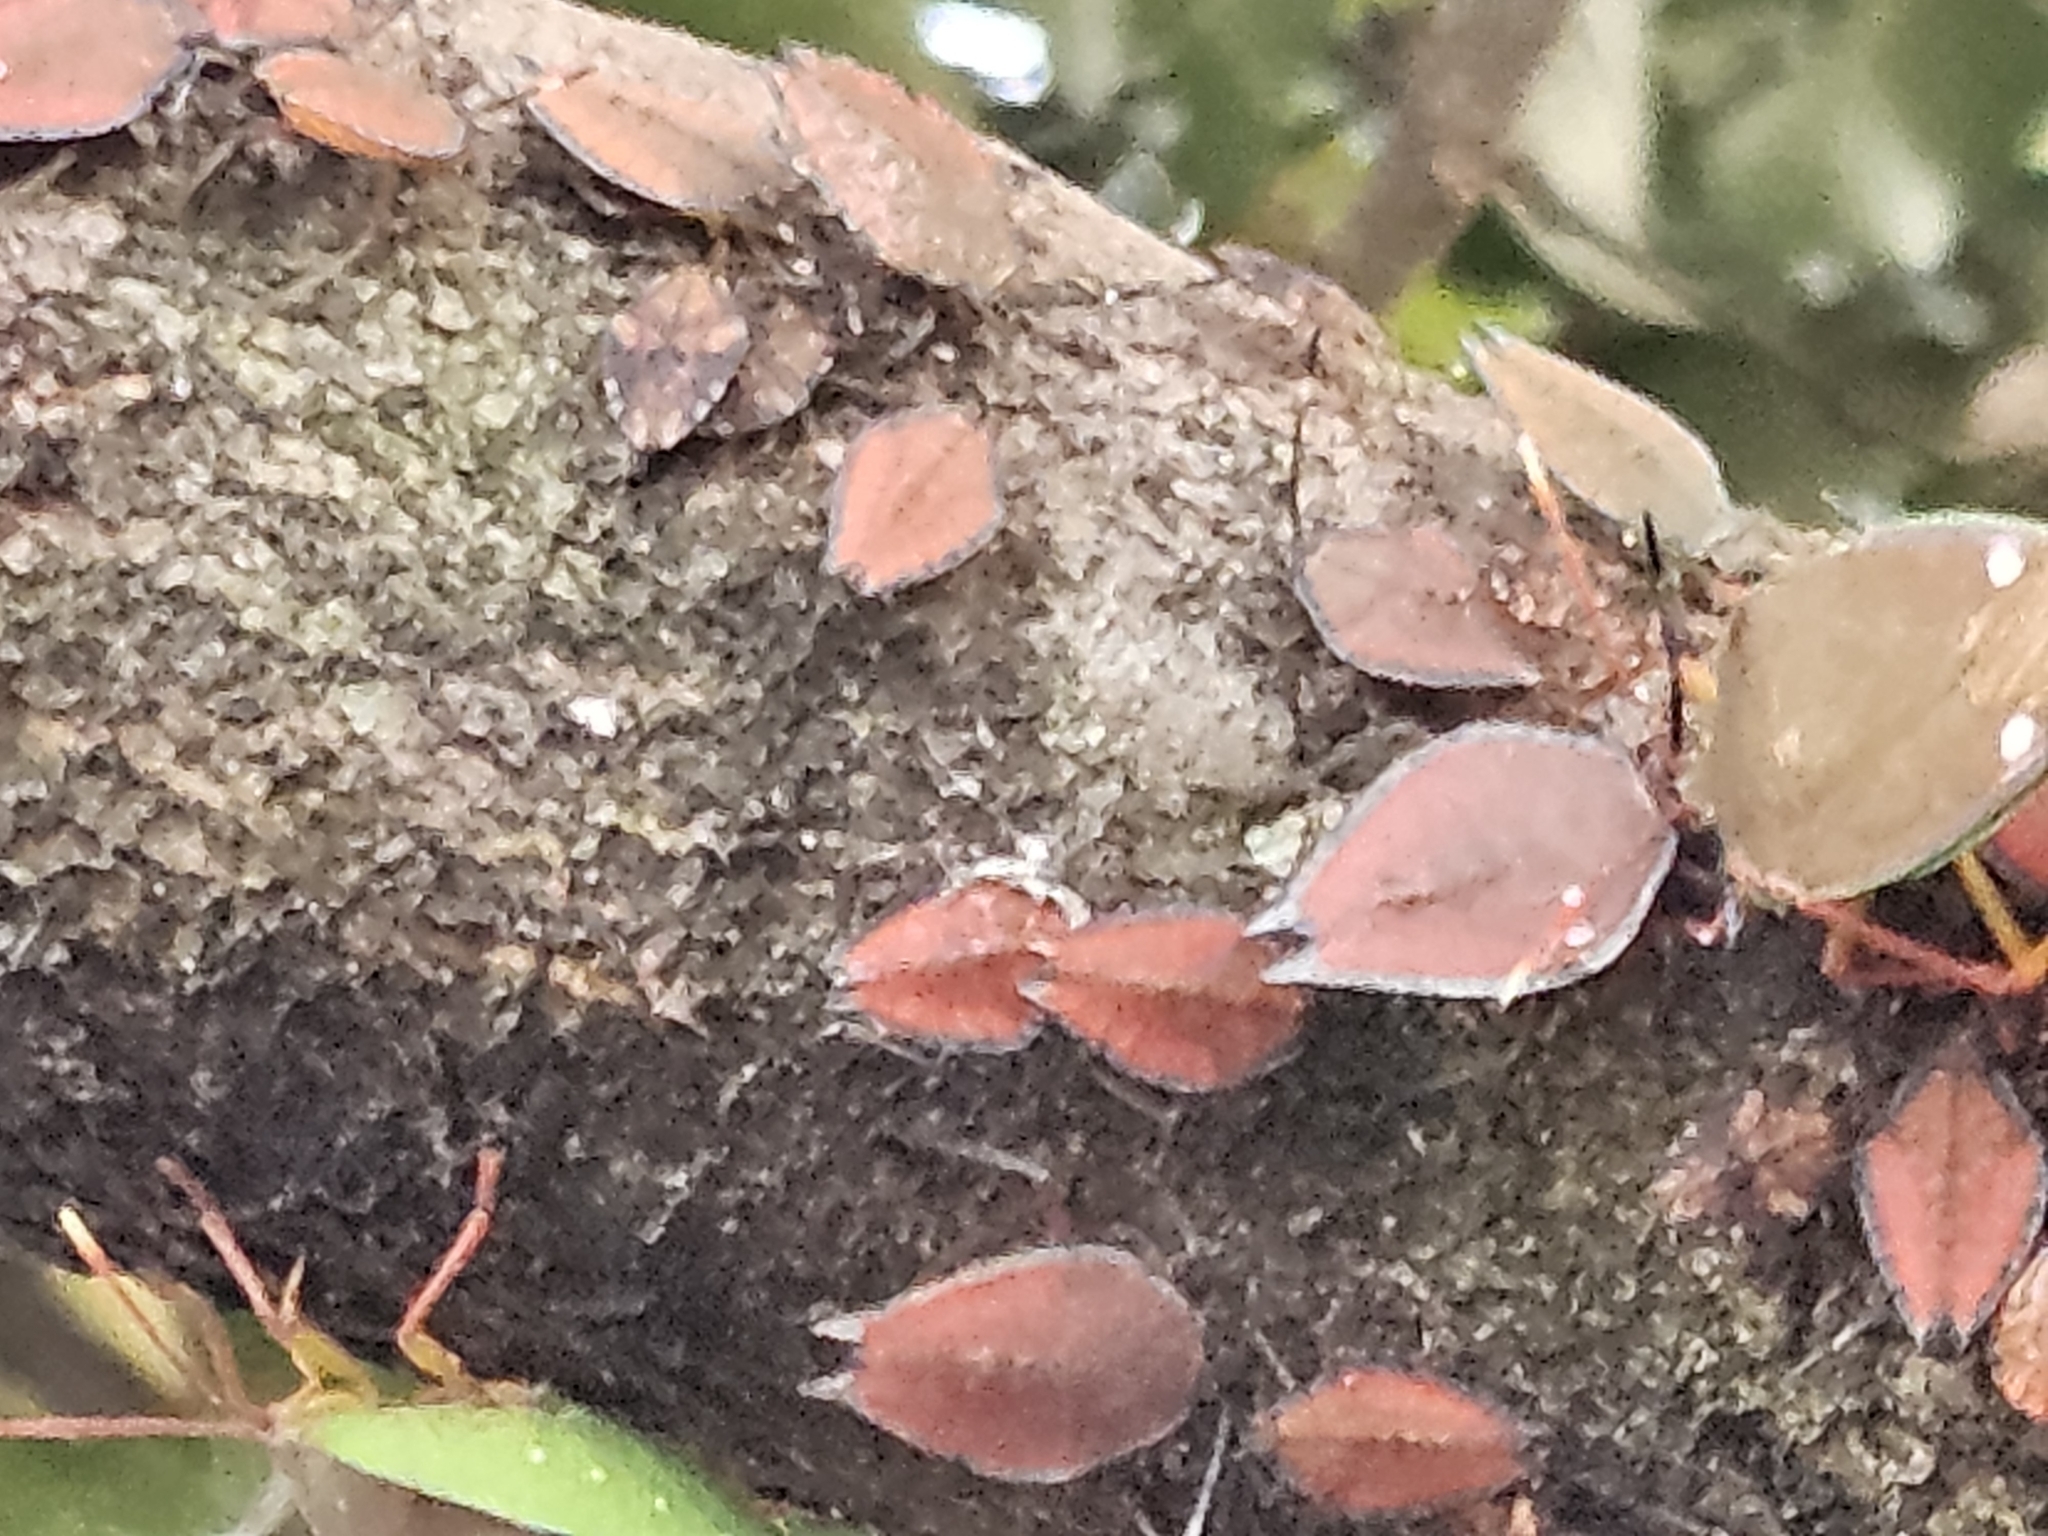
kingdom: Animalia
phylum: Arthropoda
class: Insecta
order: Hemiptera
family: Tessaratomidae
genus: Lyramorpha
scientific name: Lyramorpha rosea
